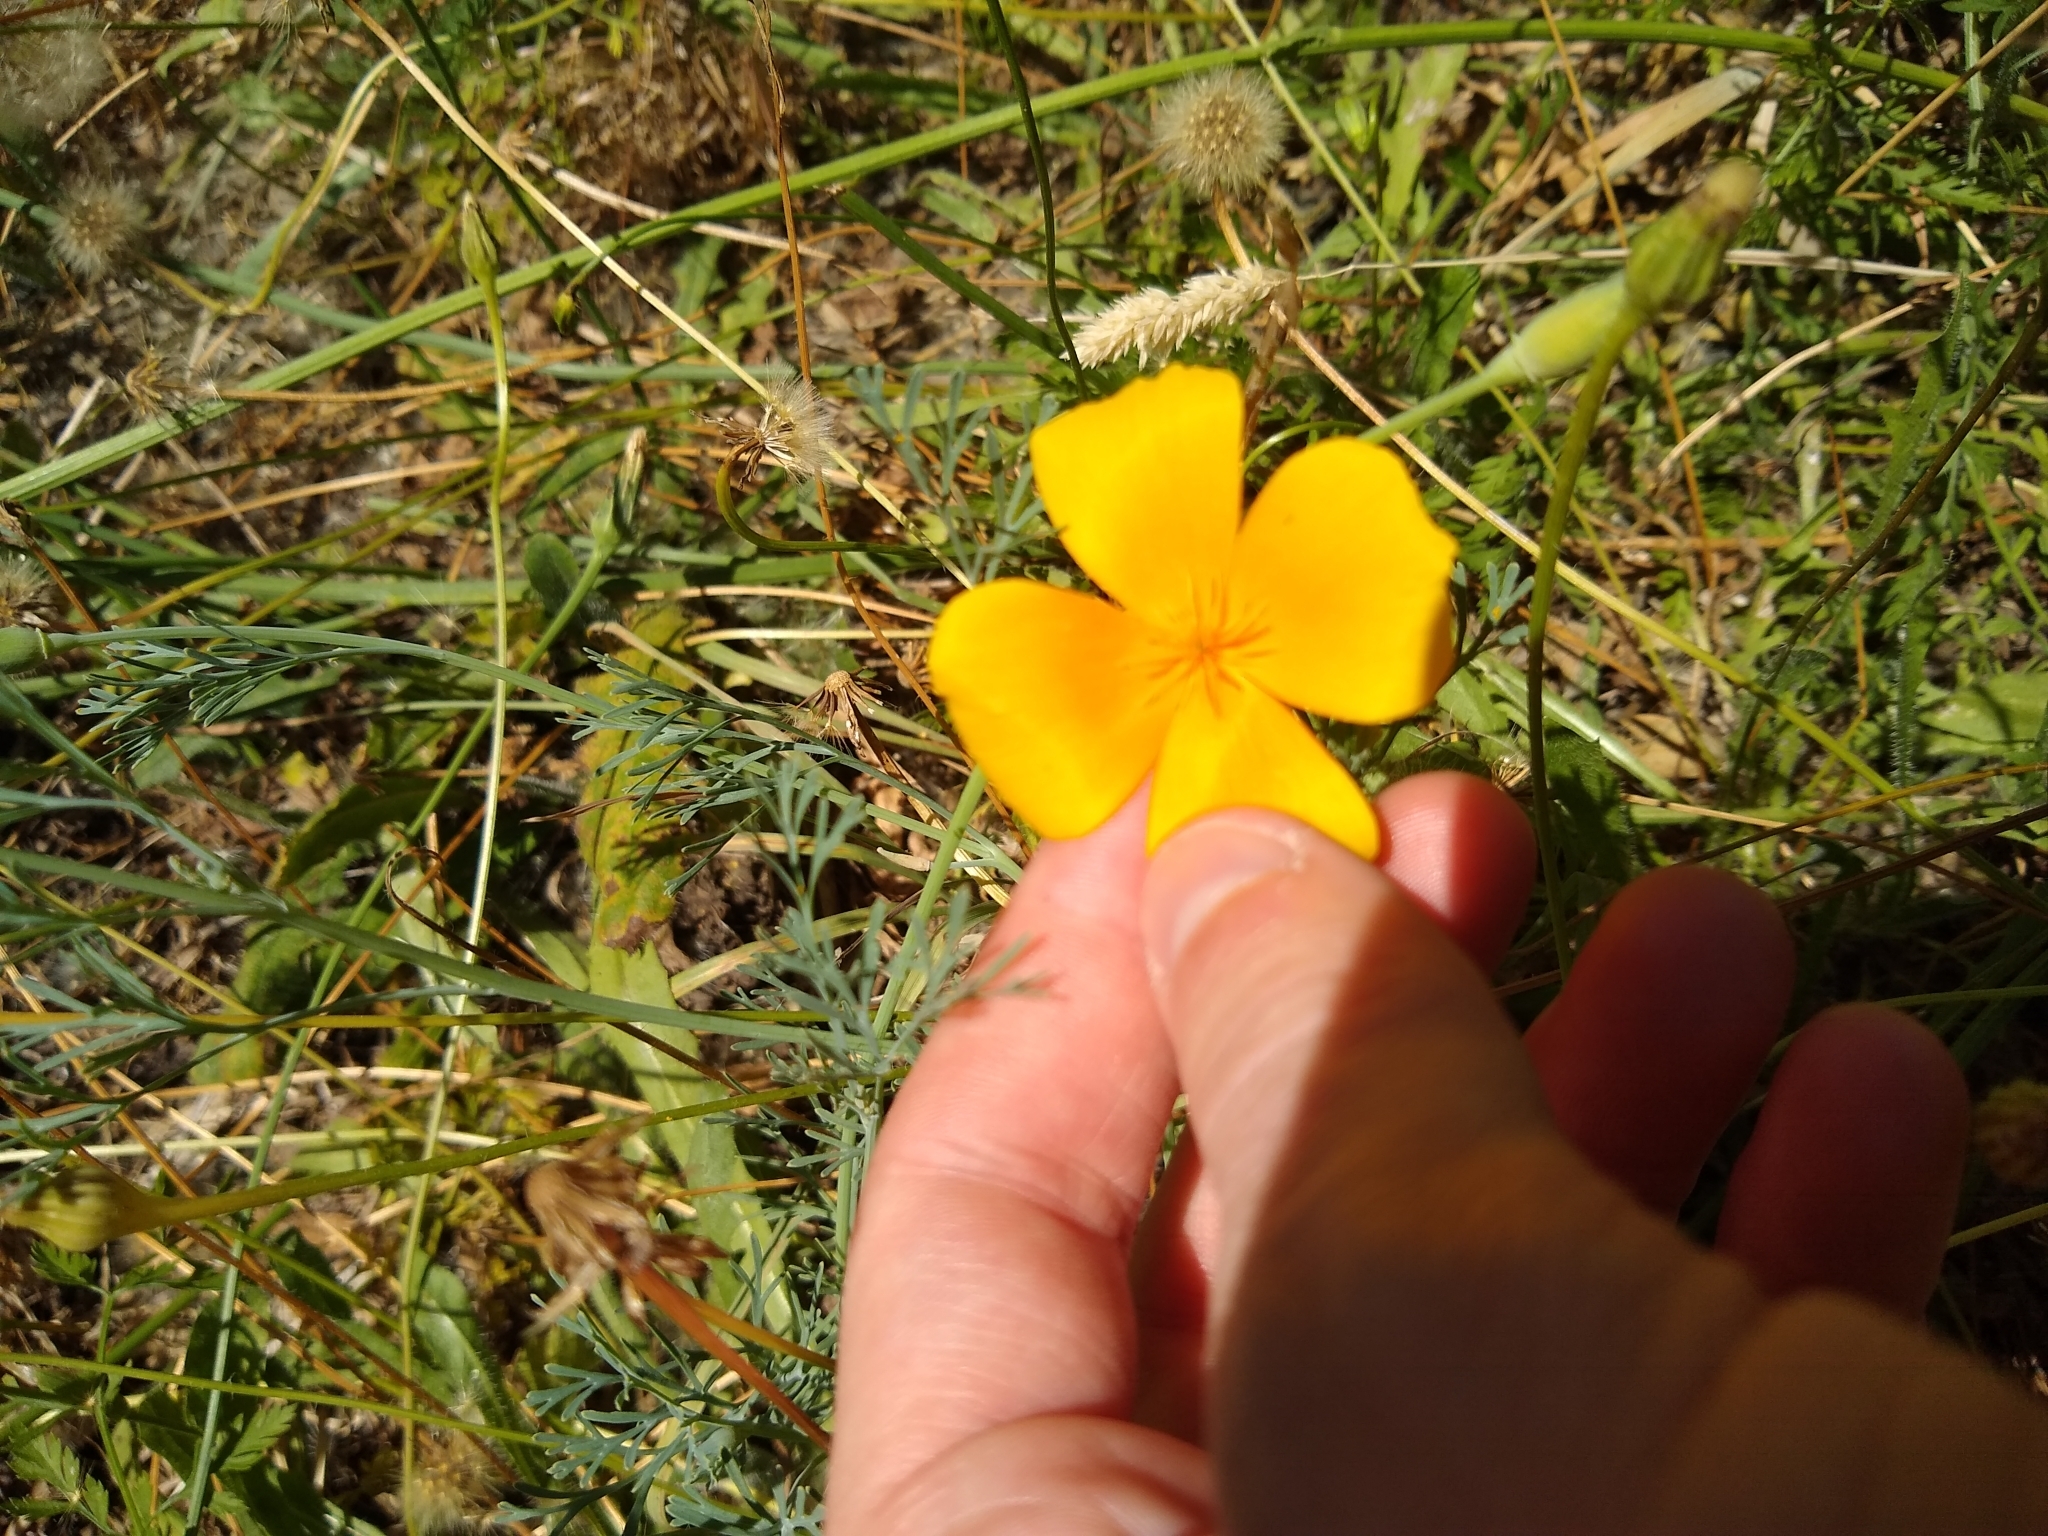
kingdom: Plantae
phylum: Tracheophyta
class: Magnoliopsida
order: Ranunculales
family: Papaveraceae
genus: Eschscholzia
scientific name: Eschscholzia californica
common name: California poppy
